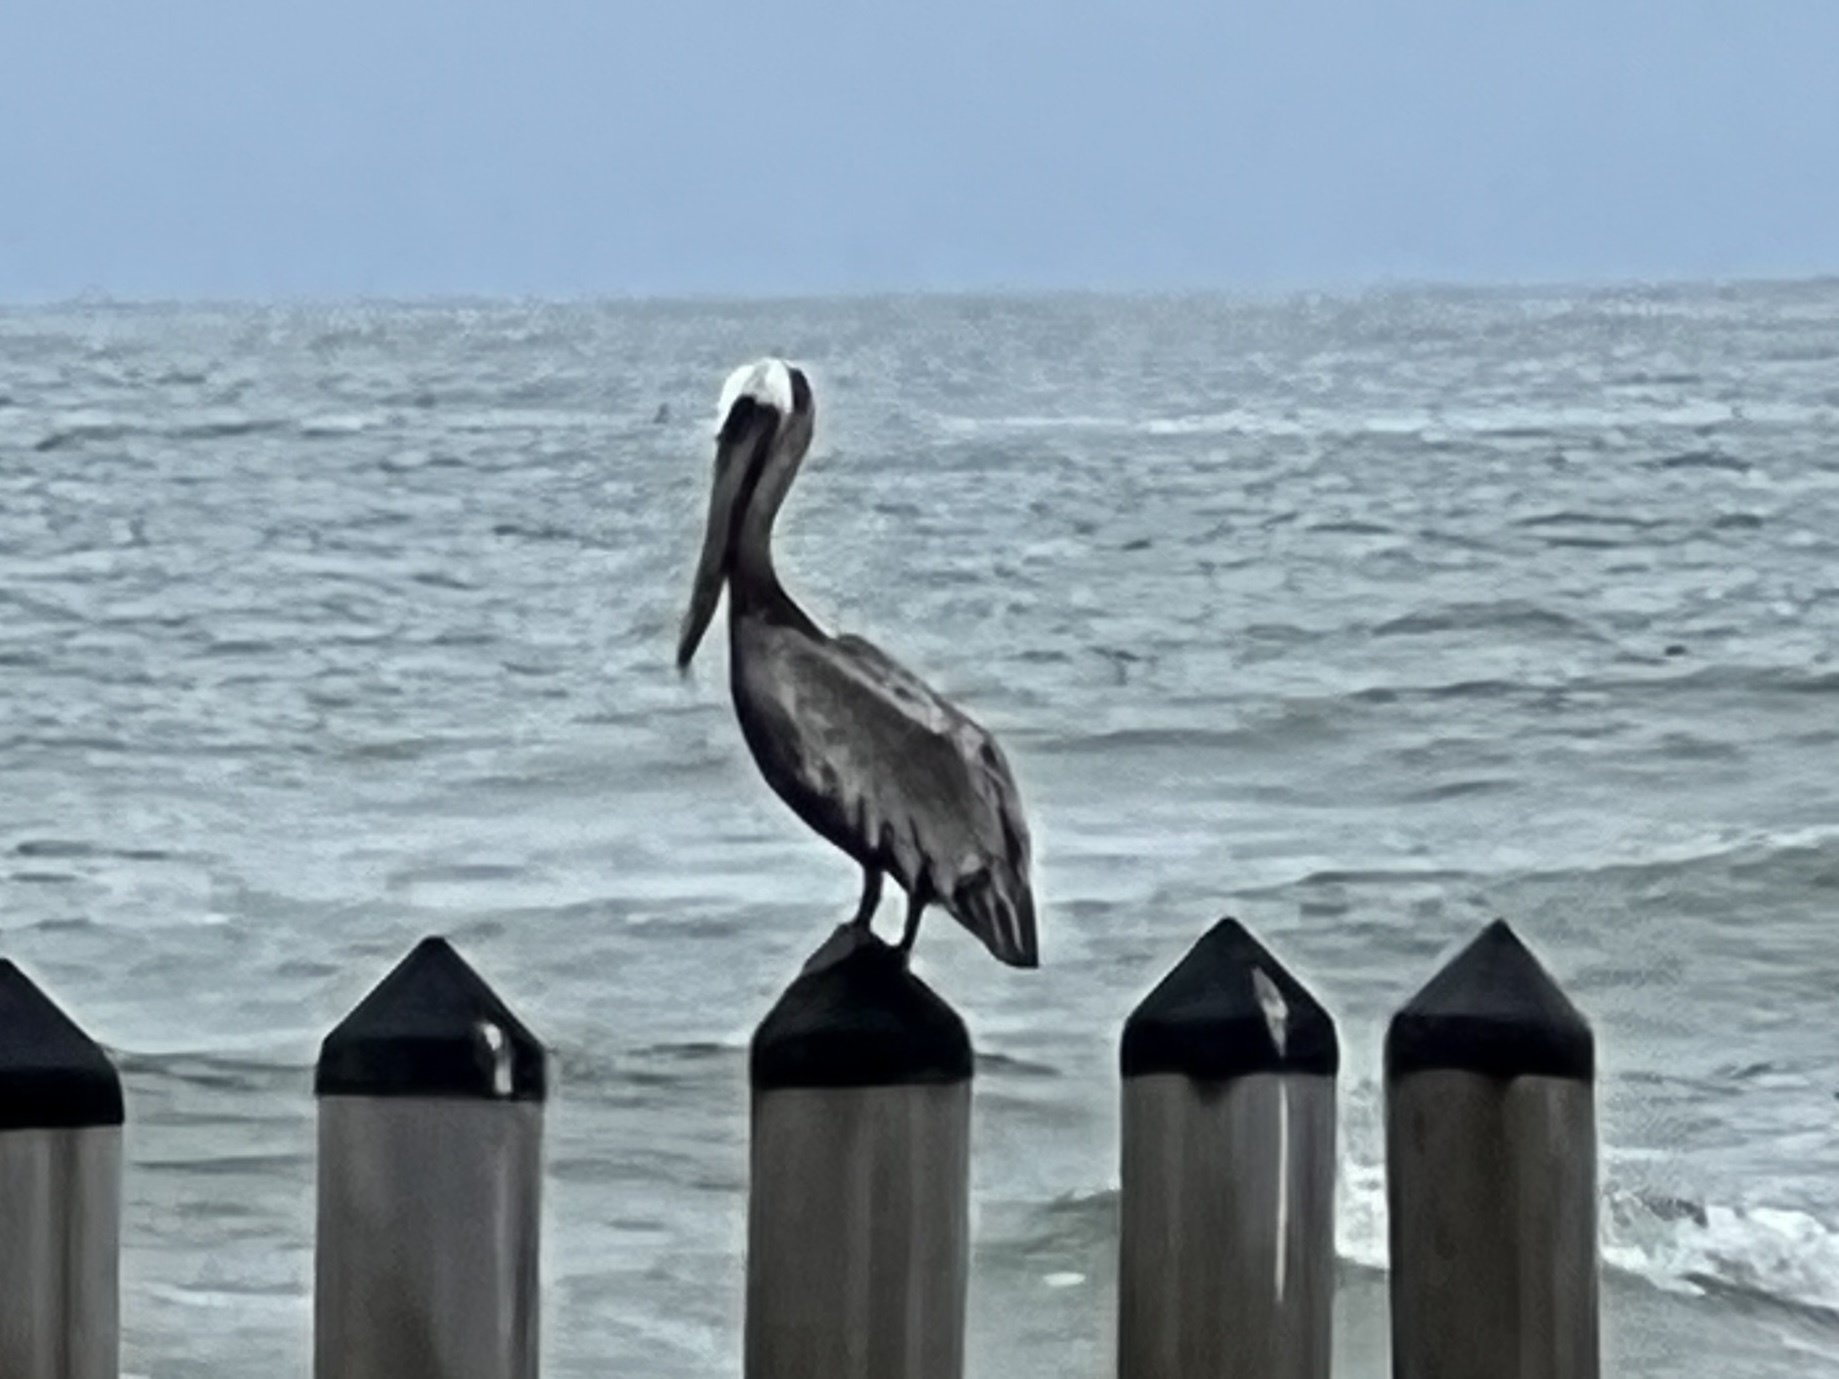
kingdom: Animalia
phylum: Chordata
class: Aves
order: Pelecaniformes
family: Pelecanidae
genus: Pelecanus
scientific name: Pelecanus occidentalis
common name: Brown pelican
